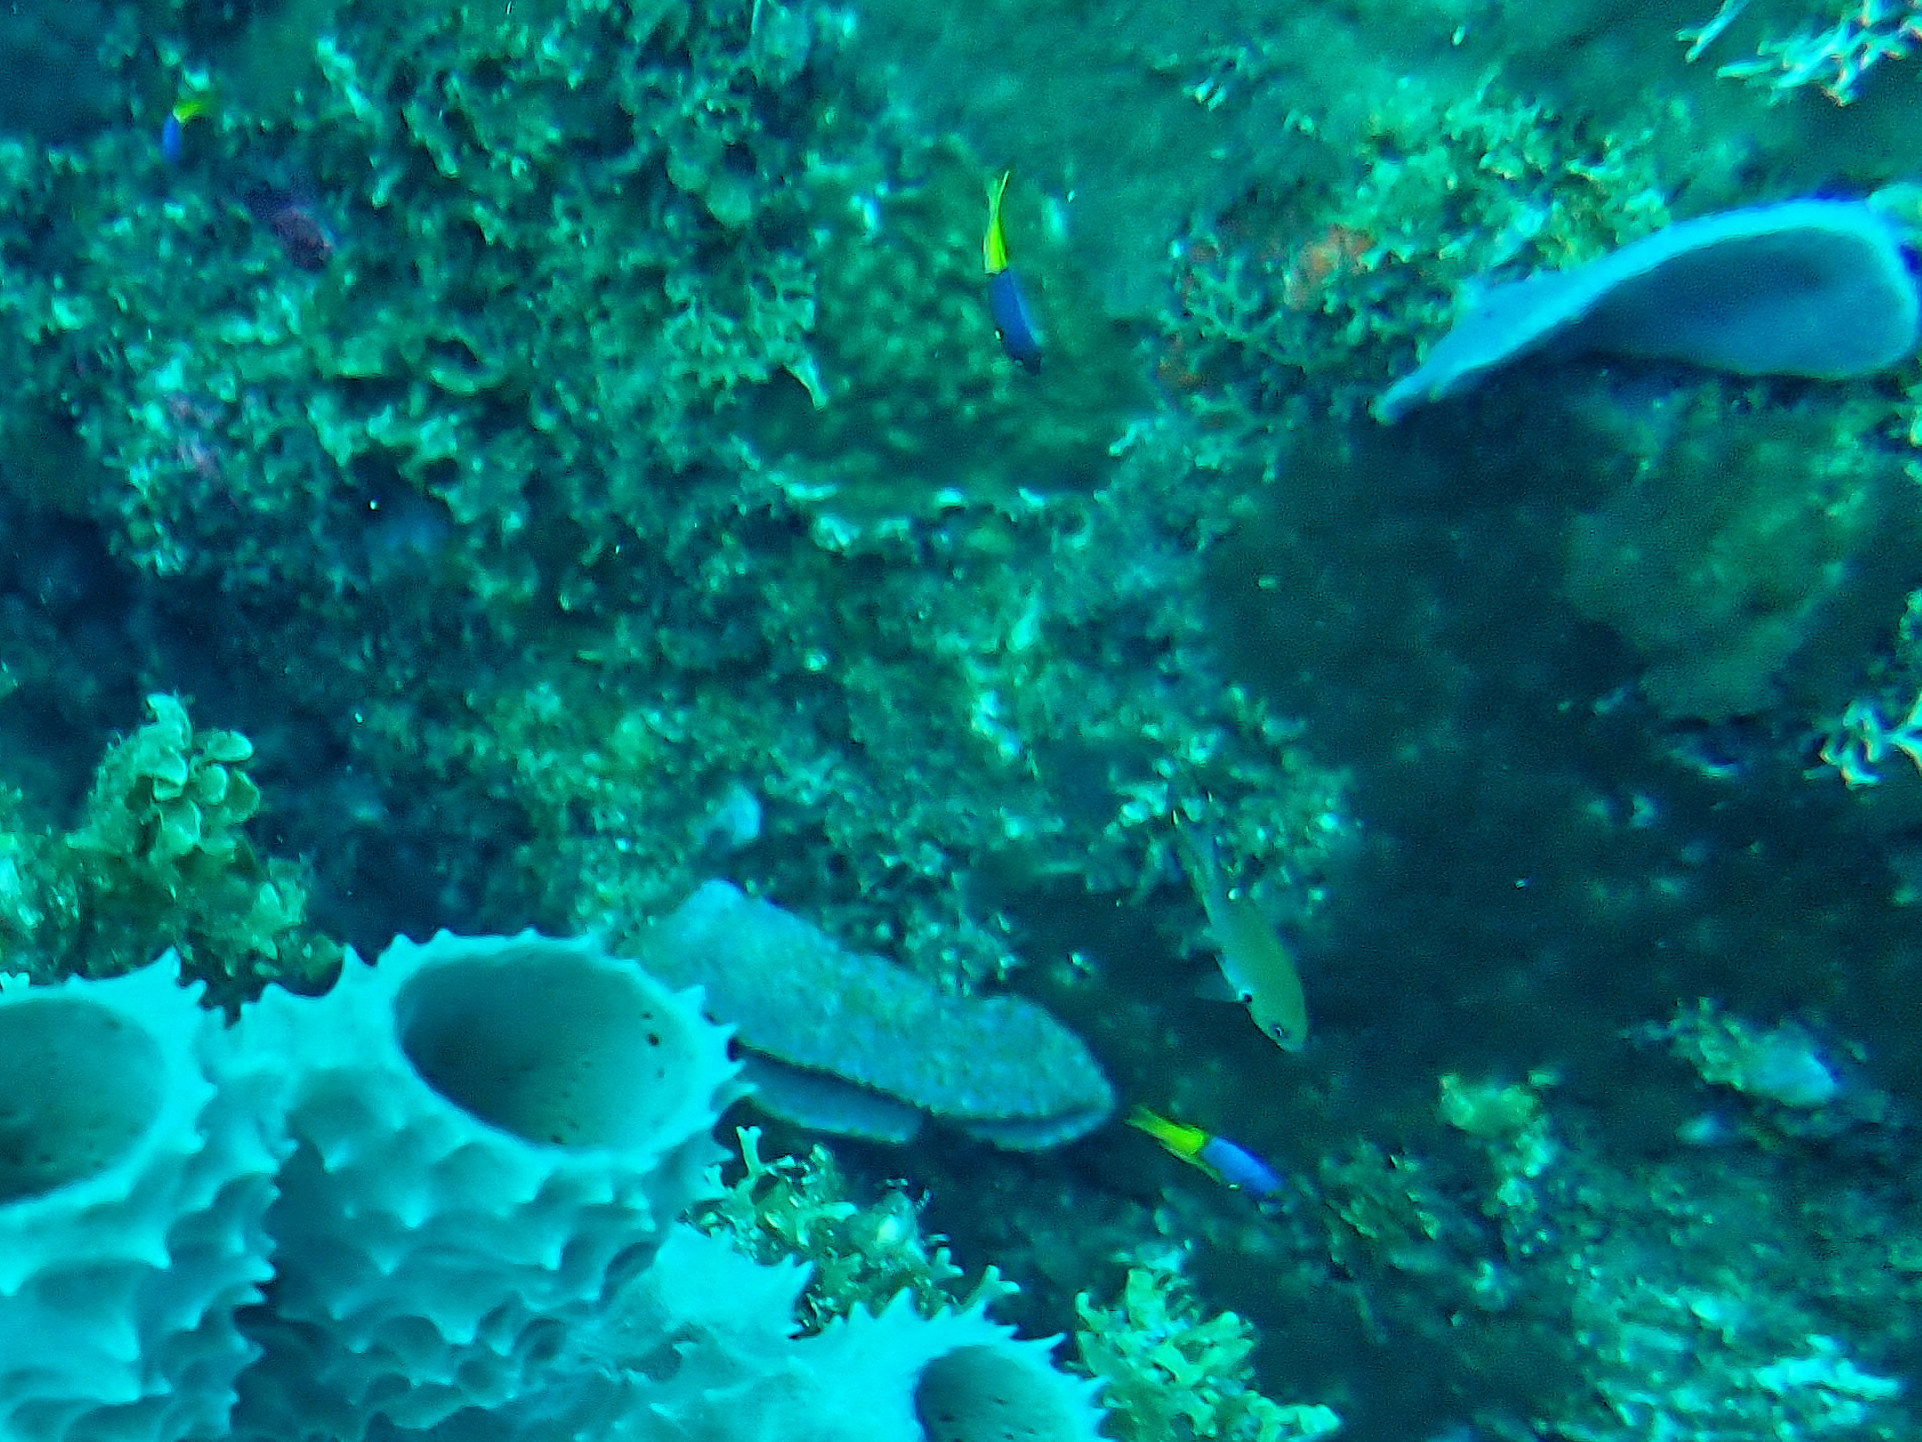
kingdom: Animalia
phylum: Chordata
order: Perciformes
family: Labridae
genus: Bodianus
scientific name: Bodianus rufus
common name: Spanish hogfish
